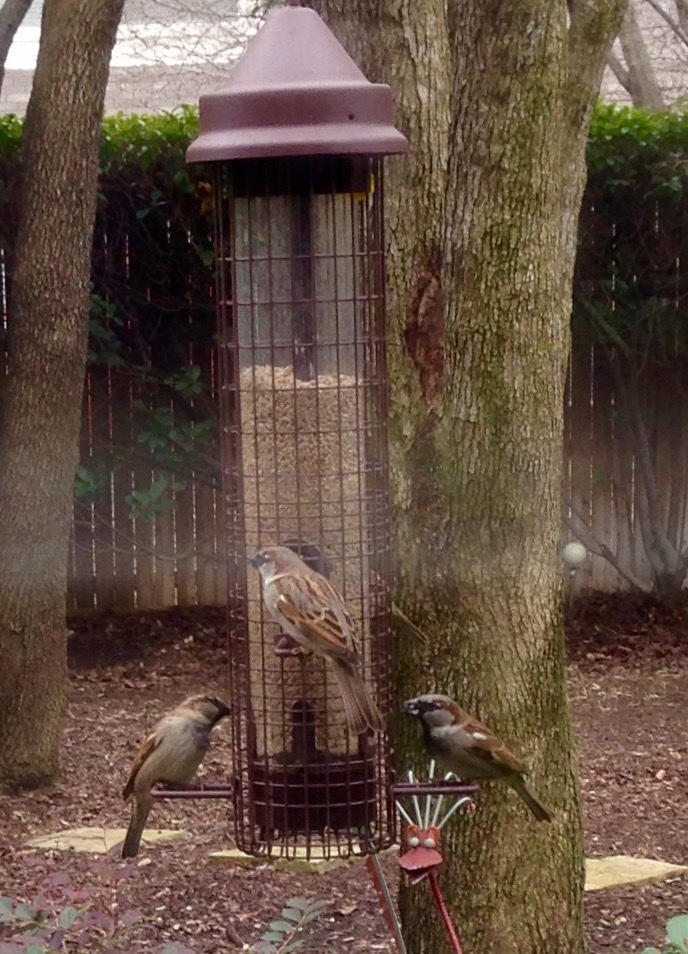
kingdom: Animalia
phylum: Chordata
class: Aves
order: Passeriformes
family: Passeridae
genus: Passer
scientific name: Passer domesticus
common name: House sparrow
